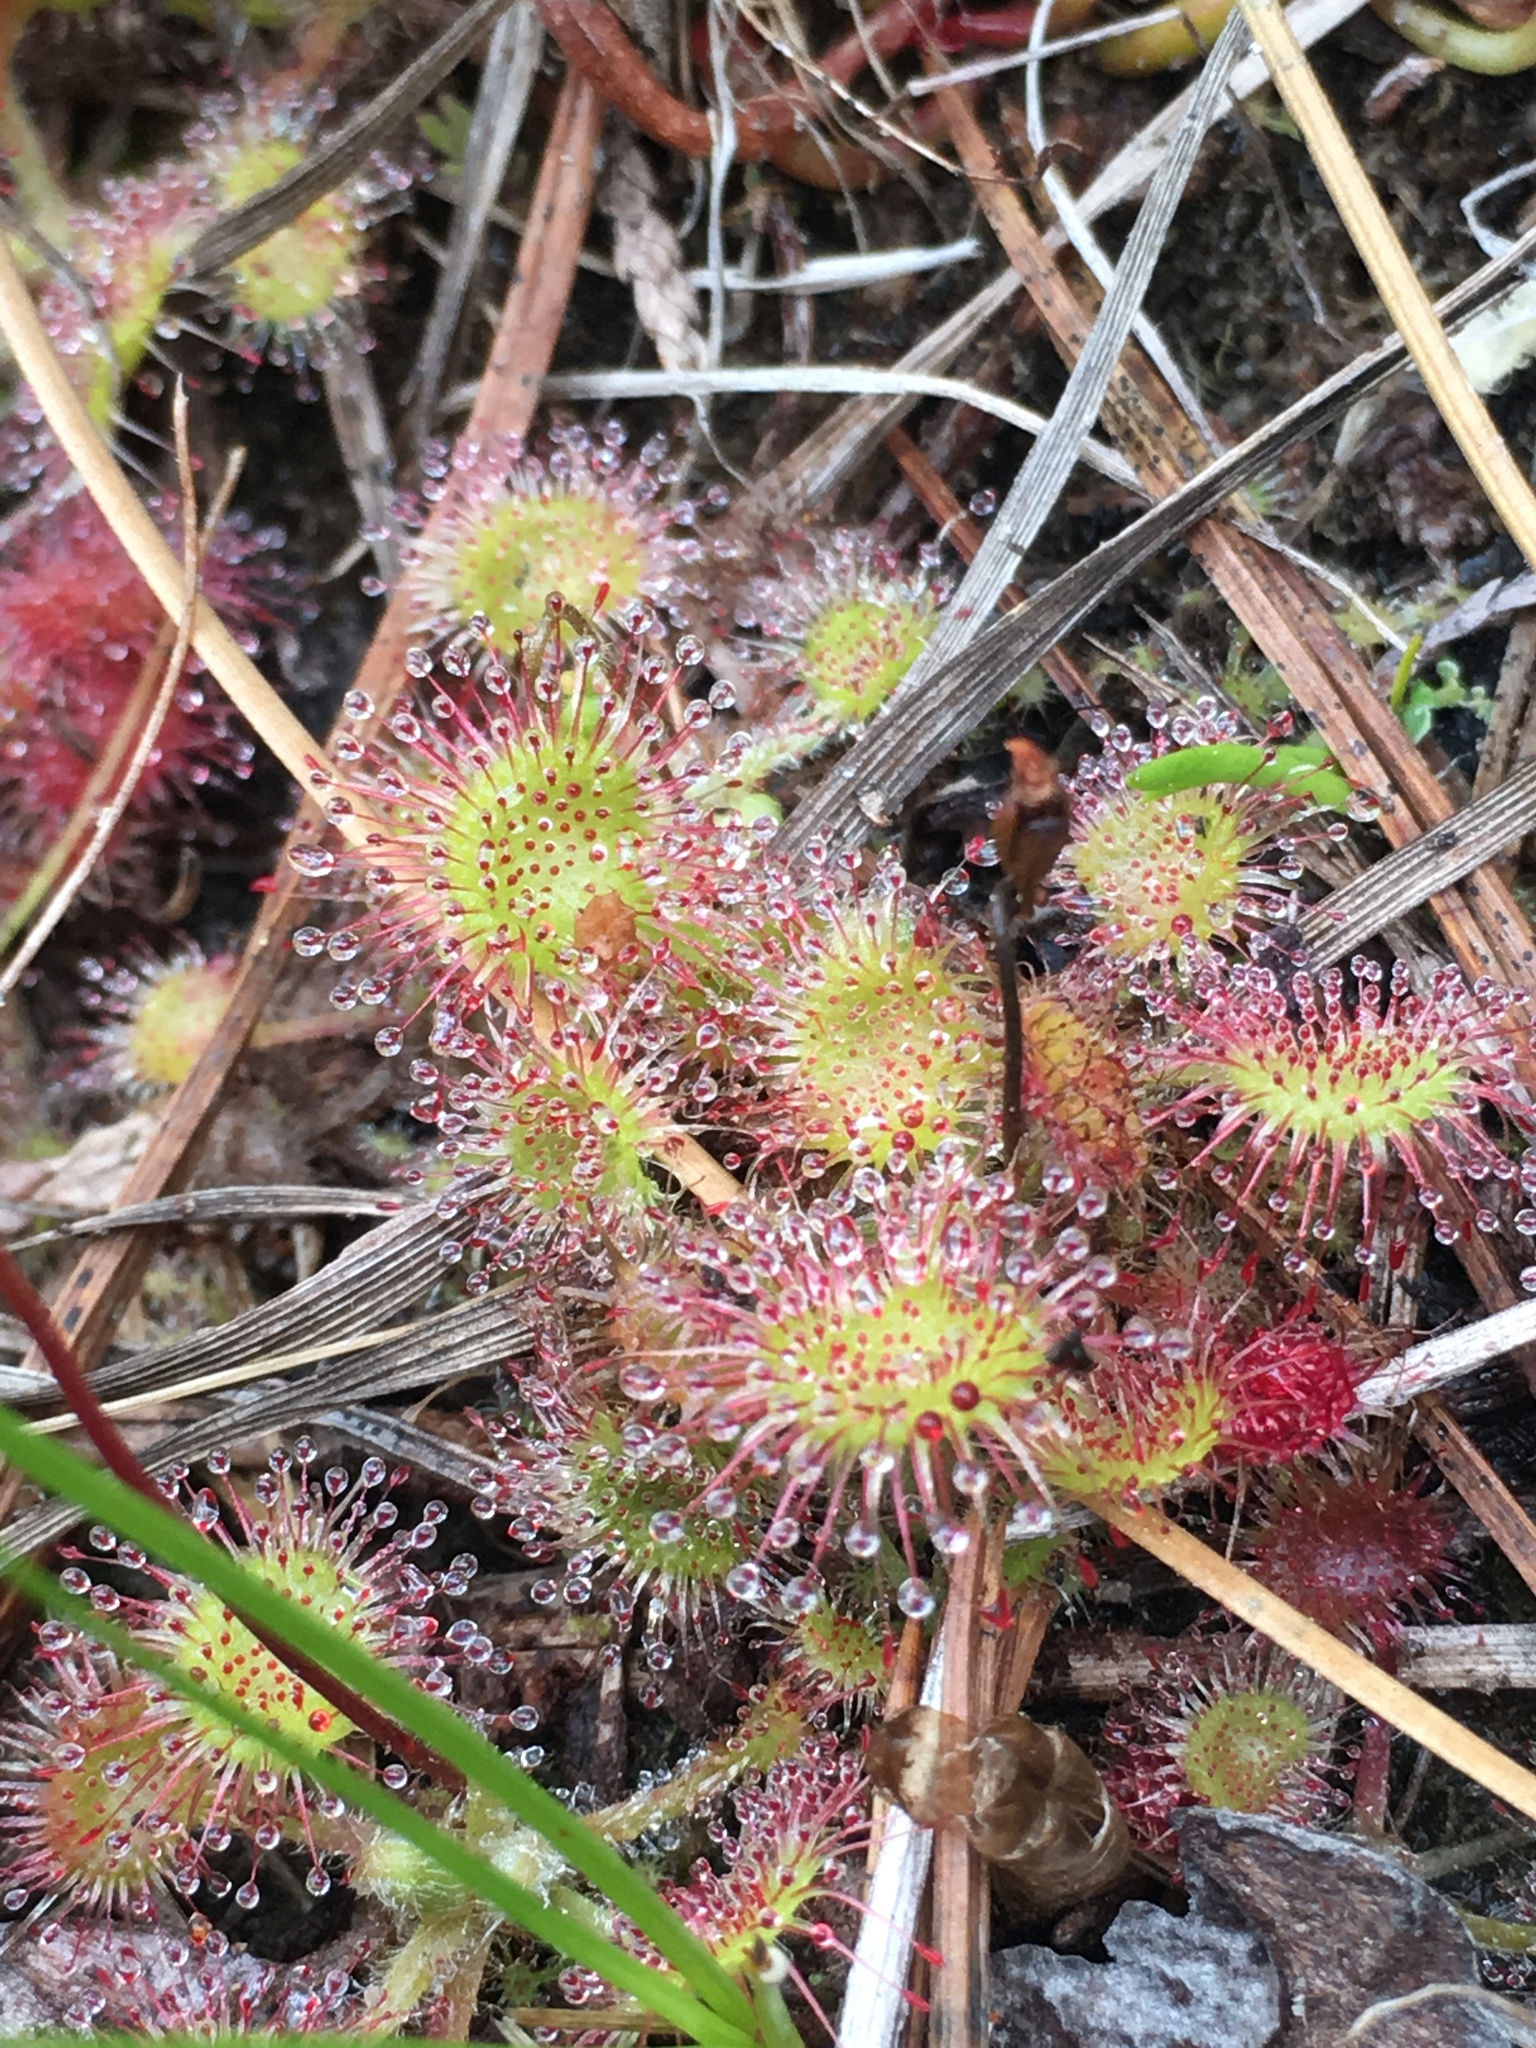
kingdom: Plantae
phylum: Tracheophyta
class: Magnoliopsida
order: Caryophyllales
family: Droseraceae
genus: Drosera
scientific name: Drosera rotundifolia
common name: Round-leaved sundew
